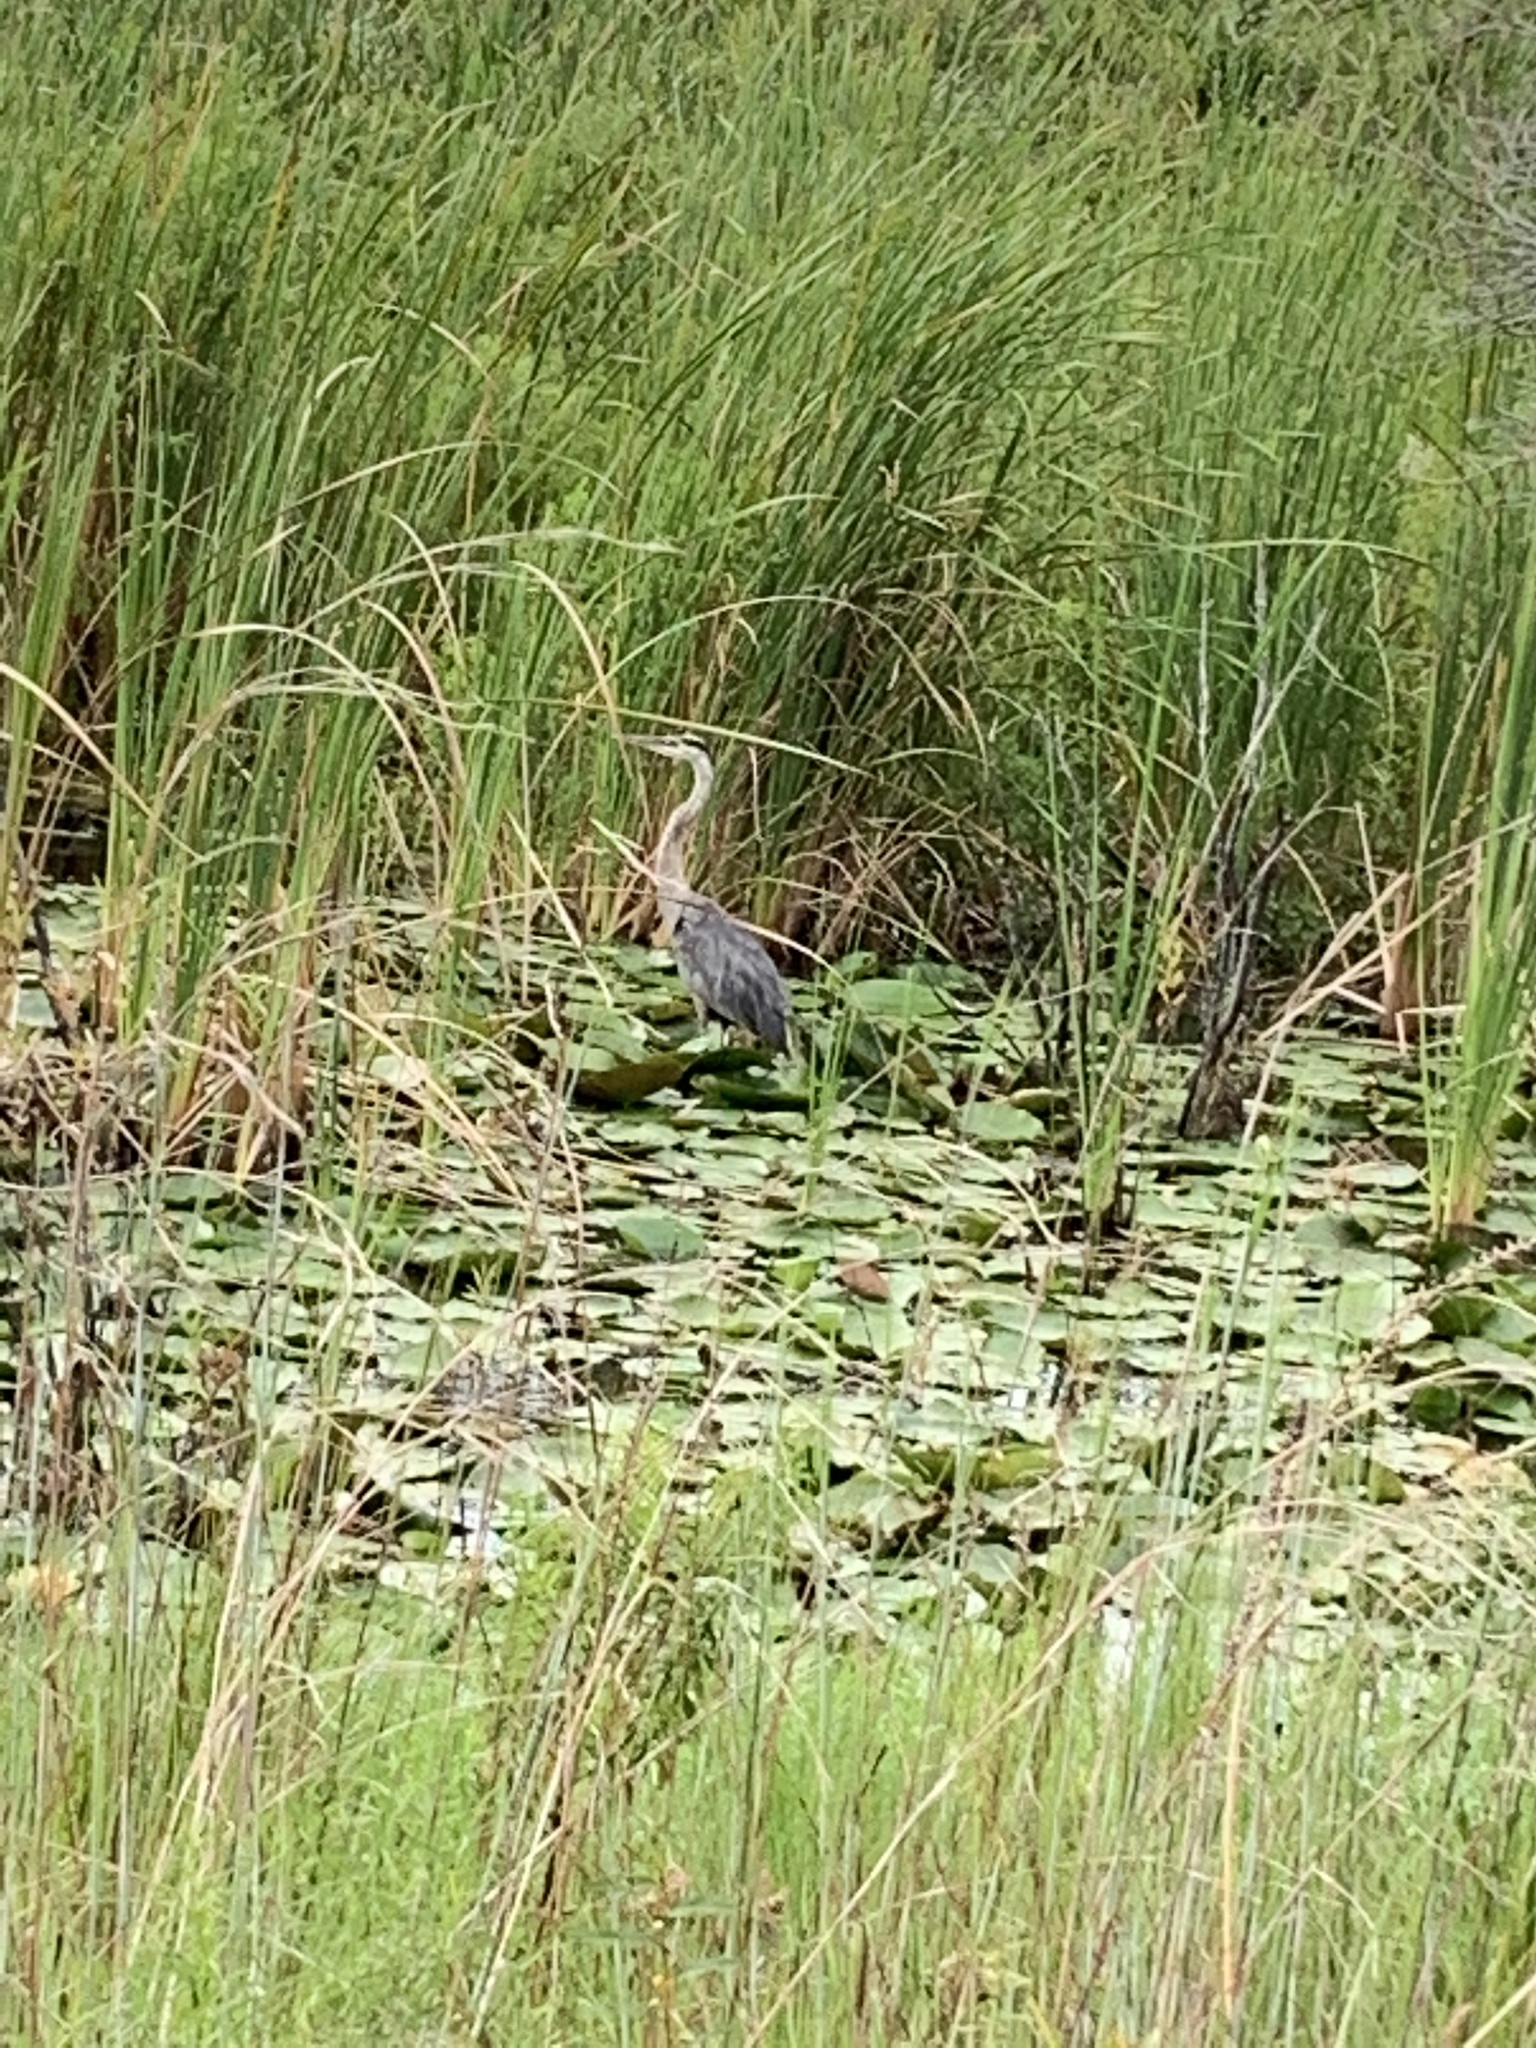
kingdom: Animalia
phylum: Chordata
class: Aves
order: Pelecaniformes
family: Ardeidae
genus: Ardea
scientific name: Ardea herodias
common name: Great blue heron
